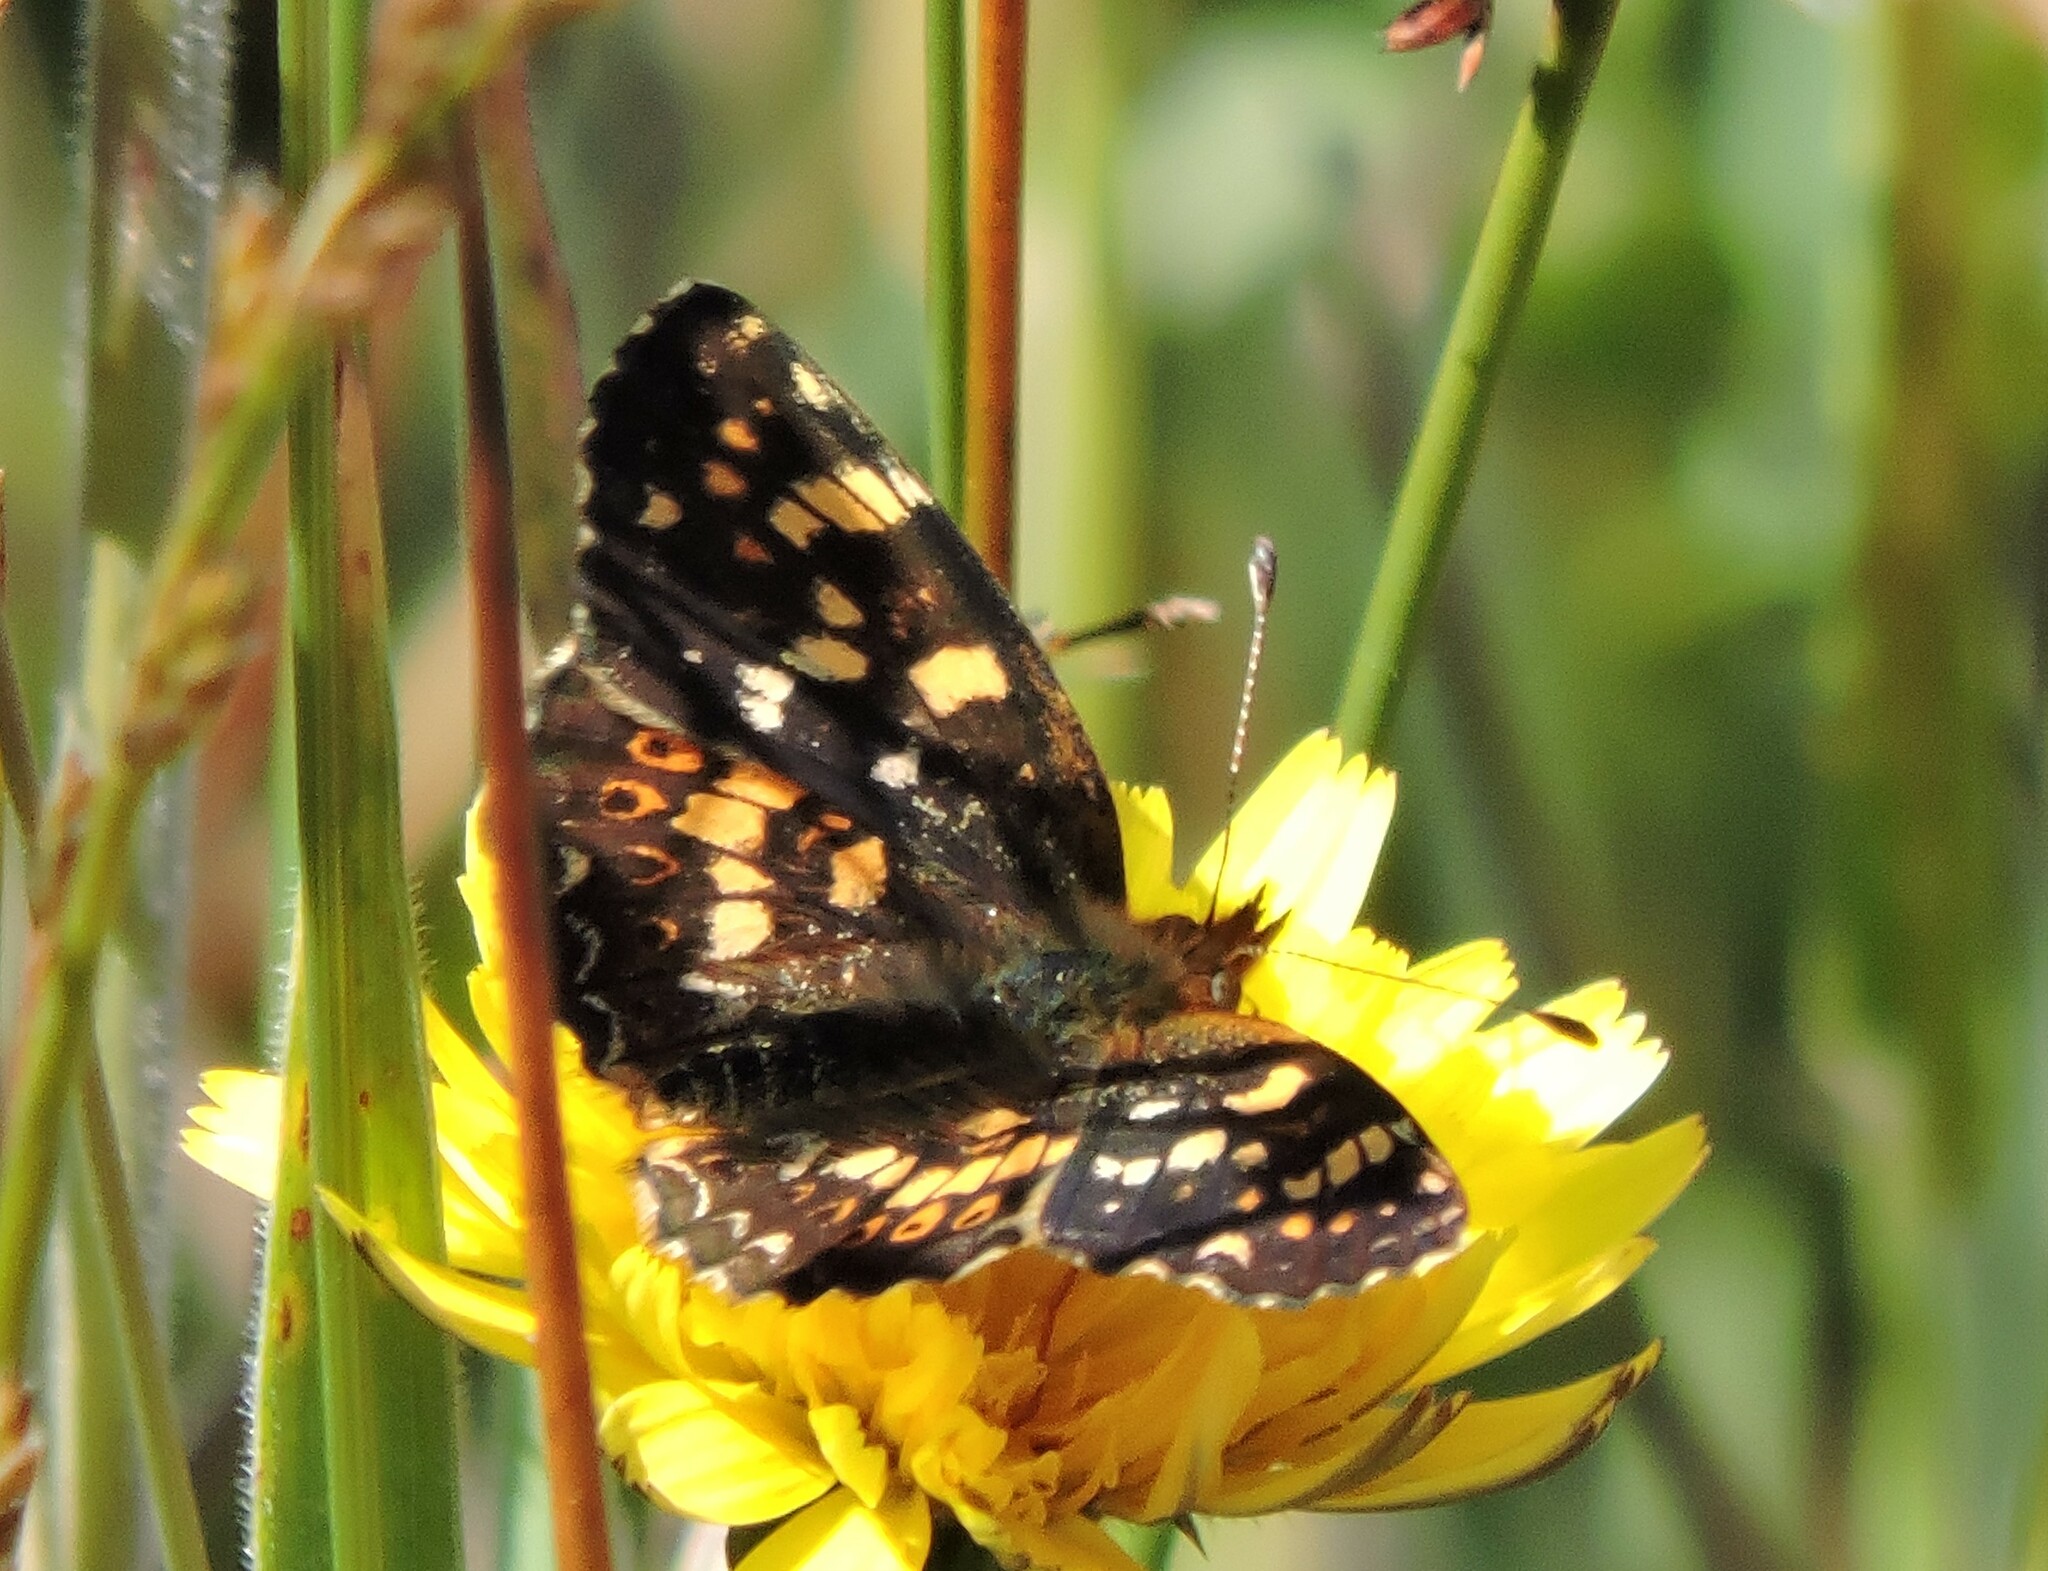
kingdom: Animalia
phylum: Arthropoda
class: Insecta
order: Lepidoptera
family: Nymphalidae
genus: Phyciodes
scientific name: Phyciodes tharos
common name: Pearl crescent
